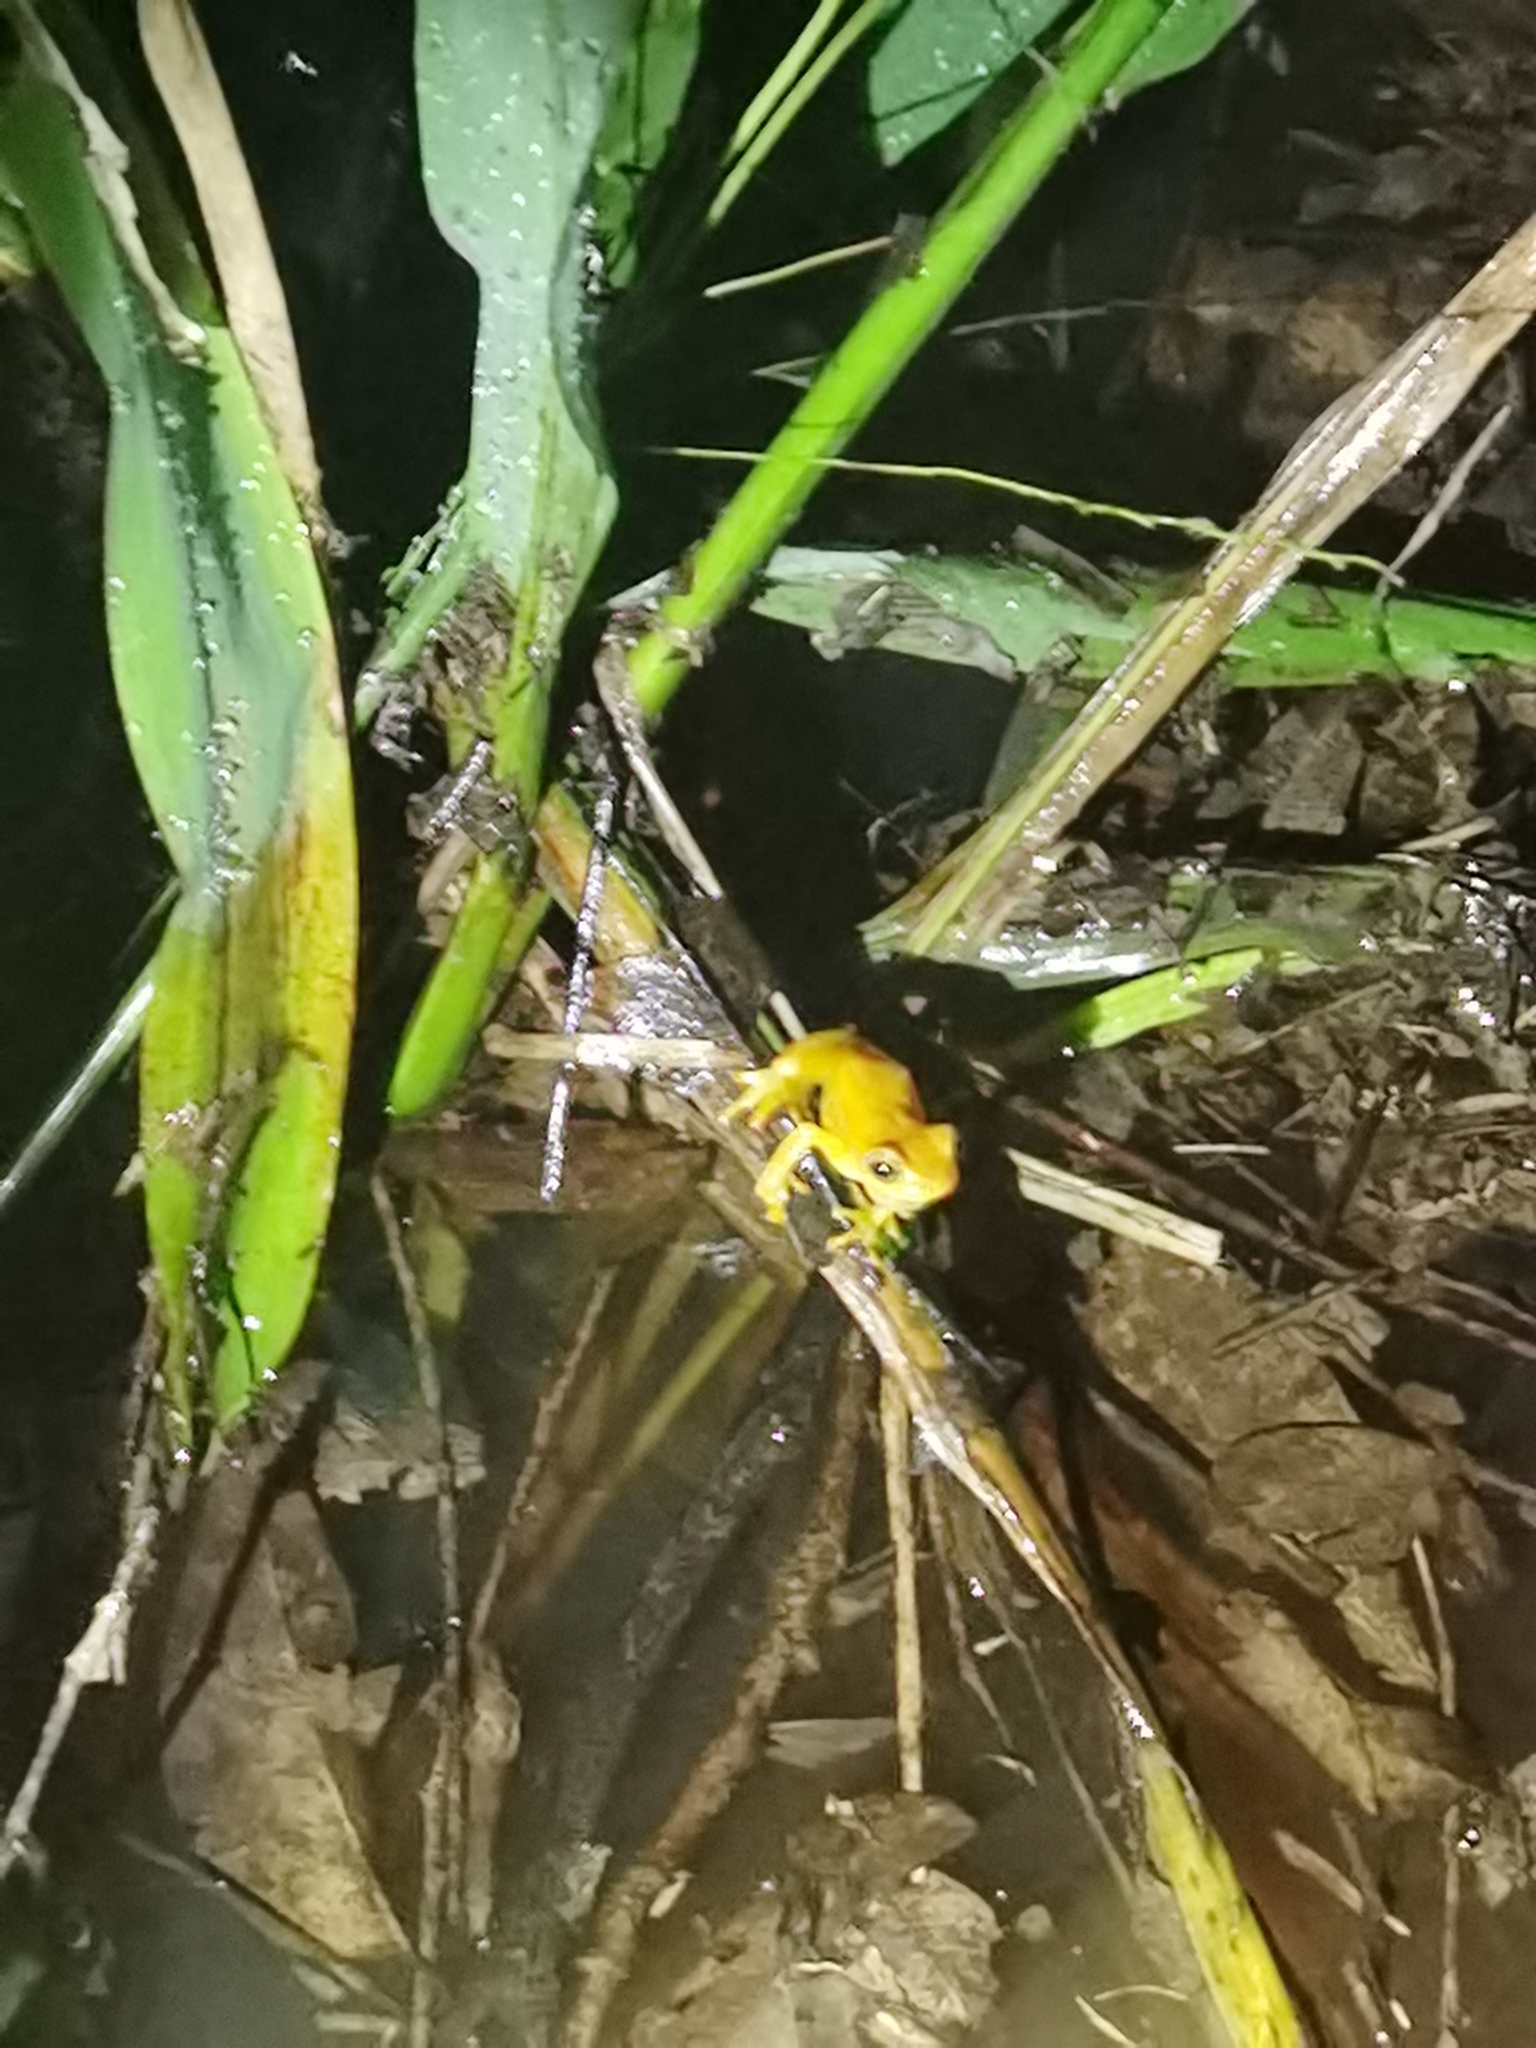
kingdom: Animalia
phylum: Chordata
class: Amphibia
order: Anura
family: Hylidae
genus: Dendropsophus
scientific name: Dendropsophus microcephalus
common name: Small-headed treefrog
